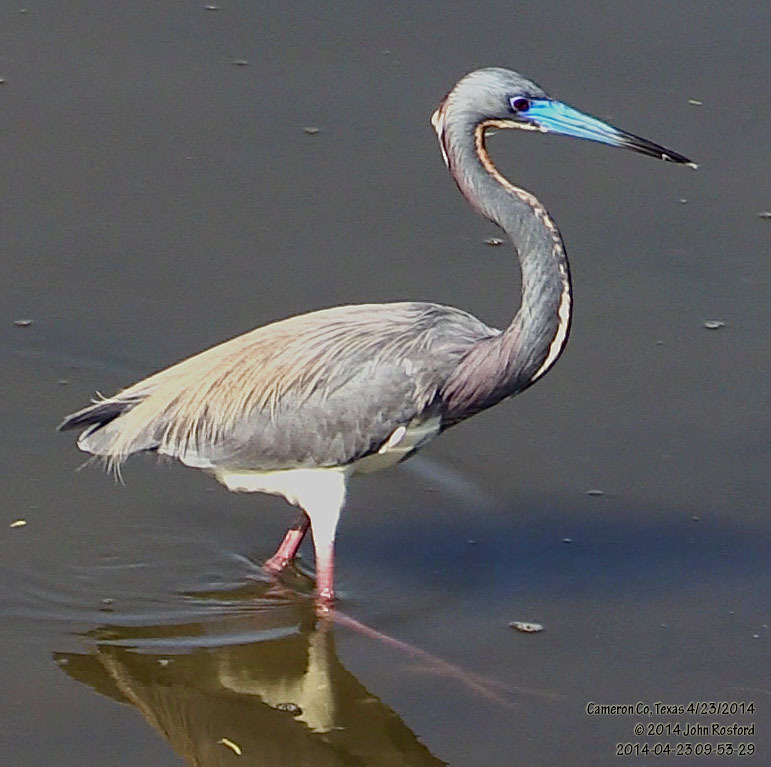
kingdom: Animalia
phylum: Chordata
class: Aves
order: Pelecaniformes
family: Ardeidae
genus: Egretta
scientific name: Egretta tricolor
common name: Tricolored heron
